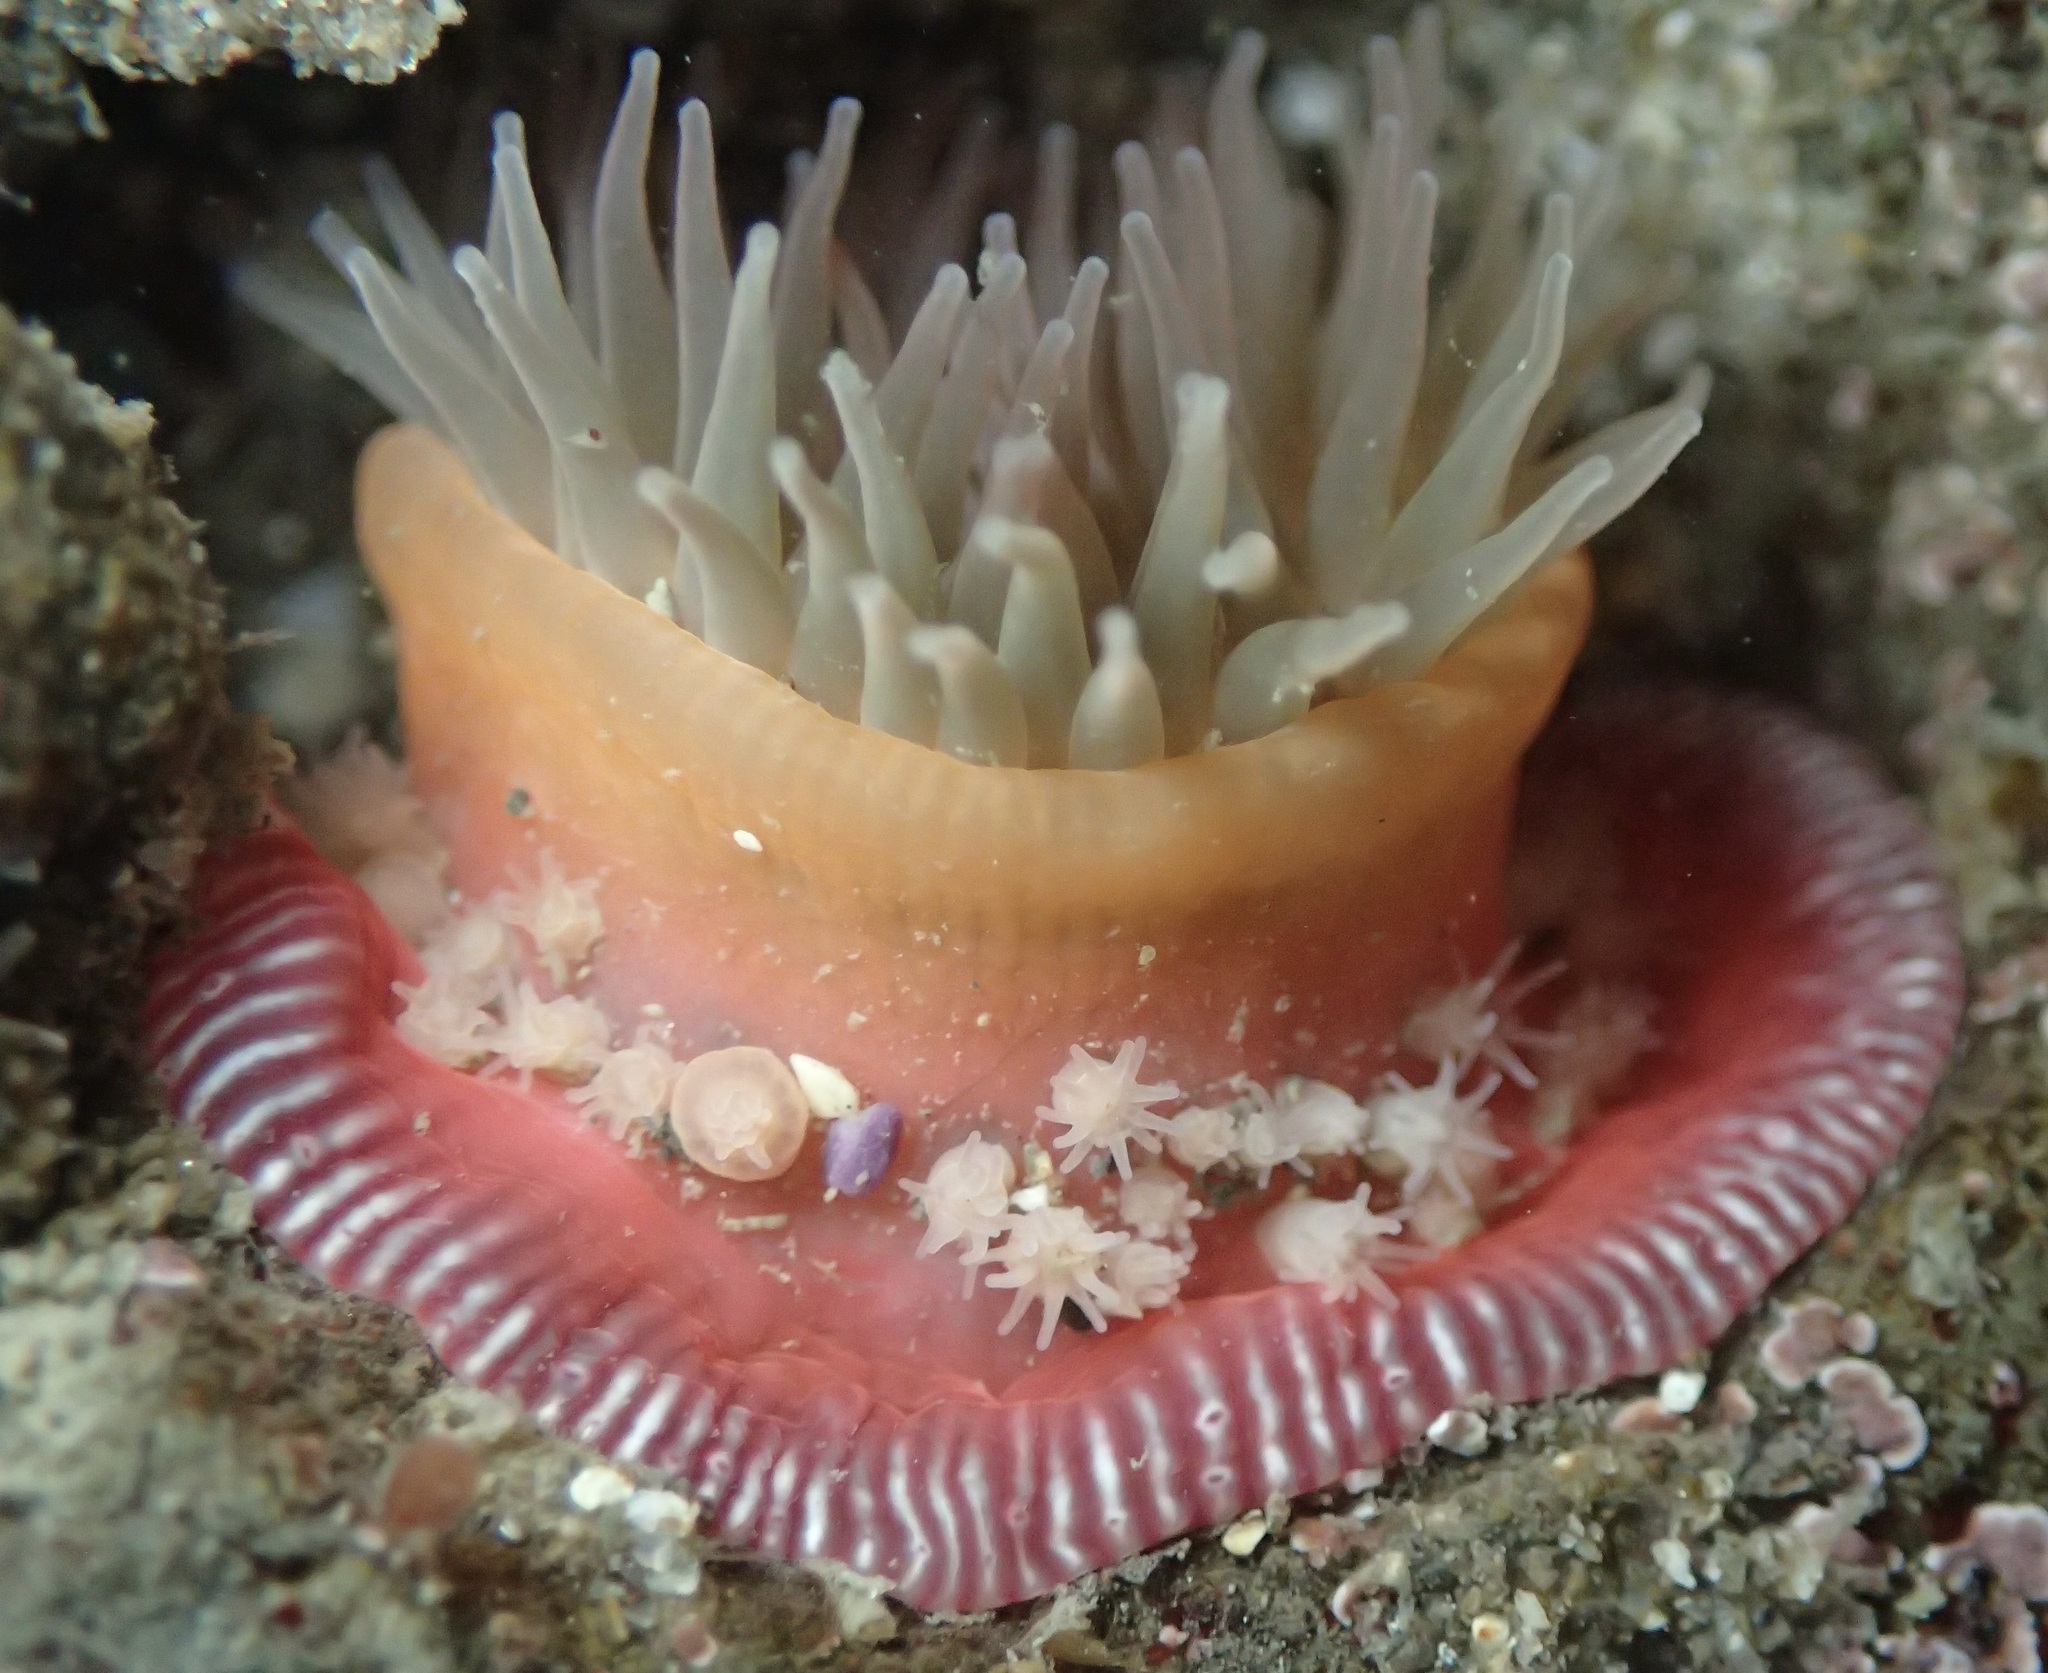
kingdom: Animalia
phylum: Cnidaria
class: Anthozoa
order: Actiniaria
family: Actiniidae
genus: Epiactis
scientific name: Epiactis prolifera
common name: Brooding anemone
